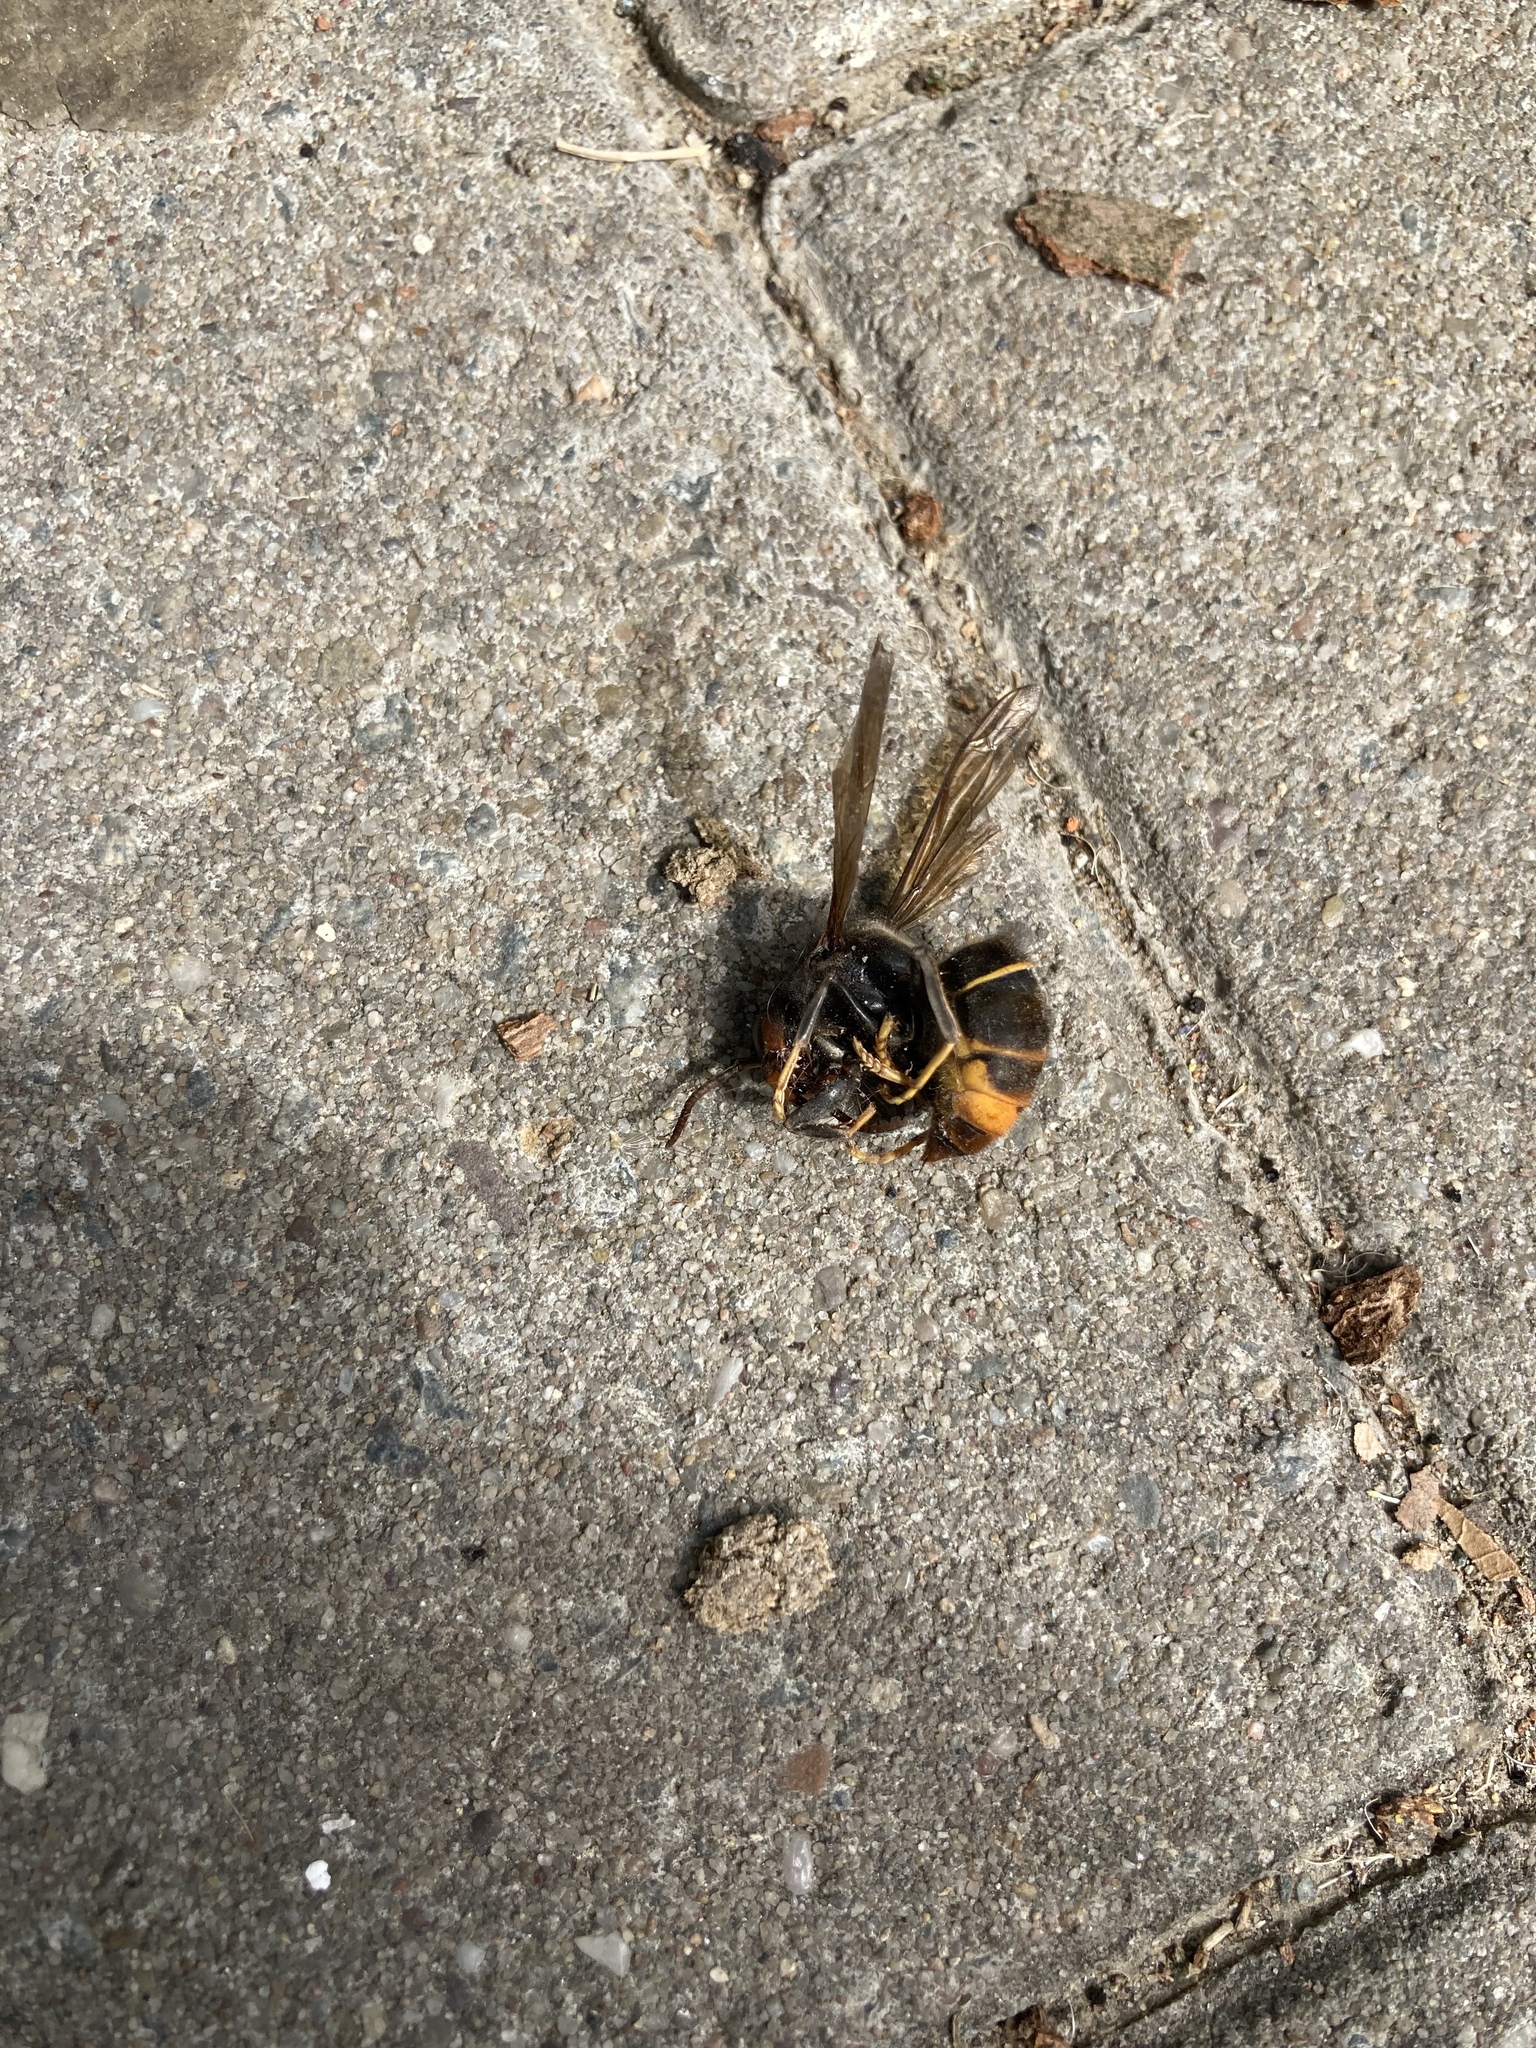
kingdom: Animalia
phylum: Arthropoda
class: Insecta
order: Hymenoptera
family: Vespidae
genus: Vespa
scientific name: Vespa velutina
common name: Asian hornet
